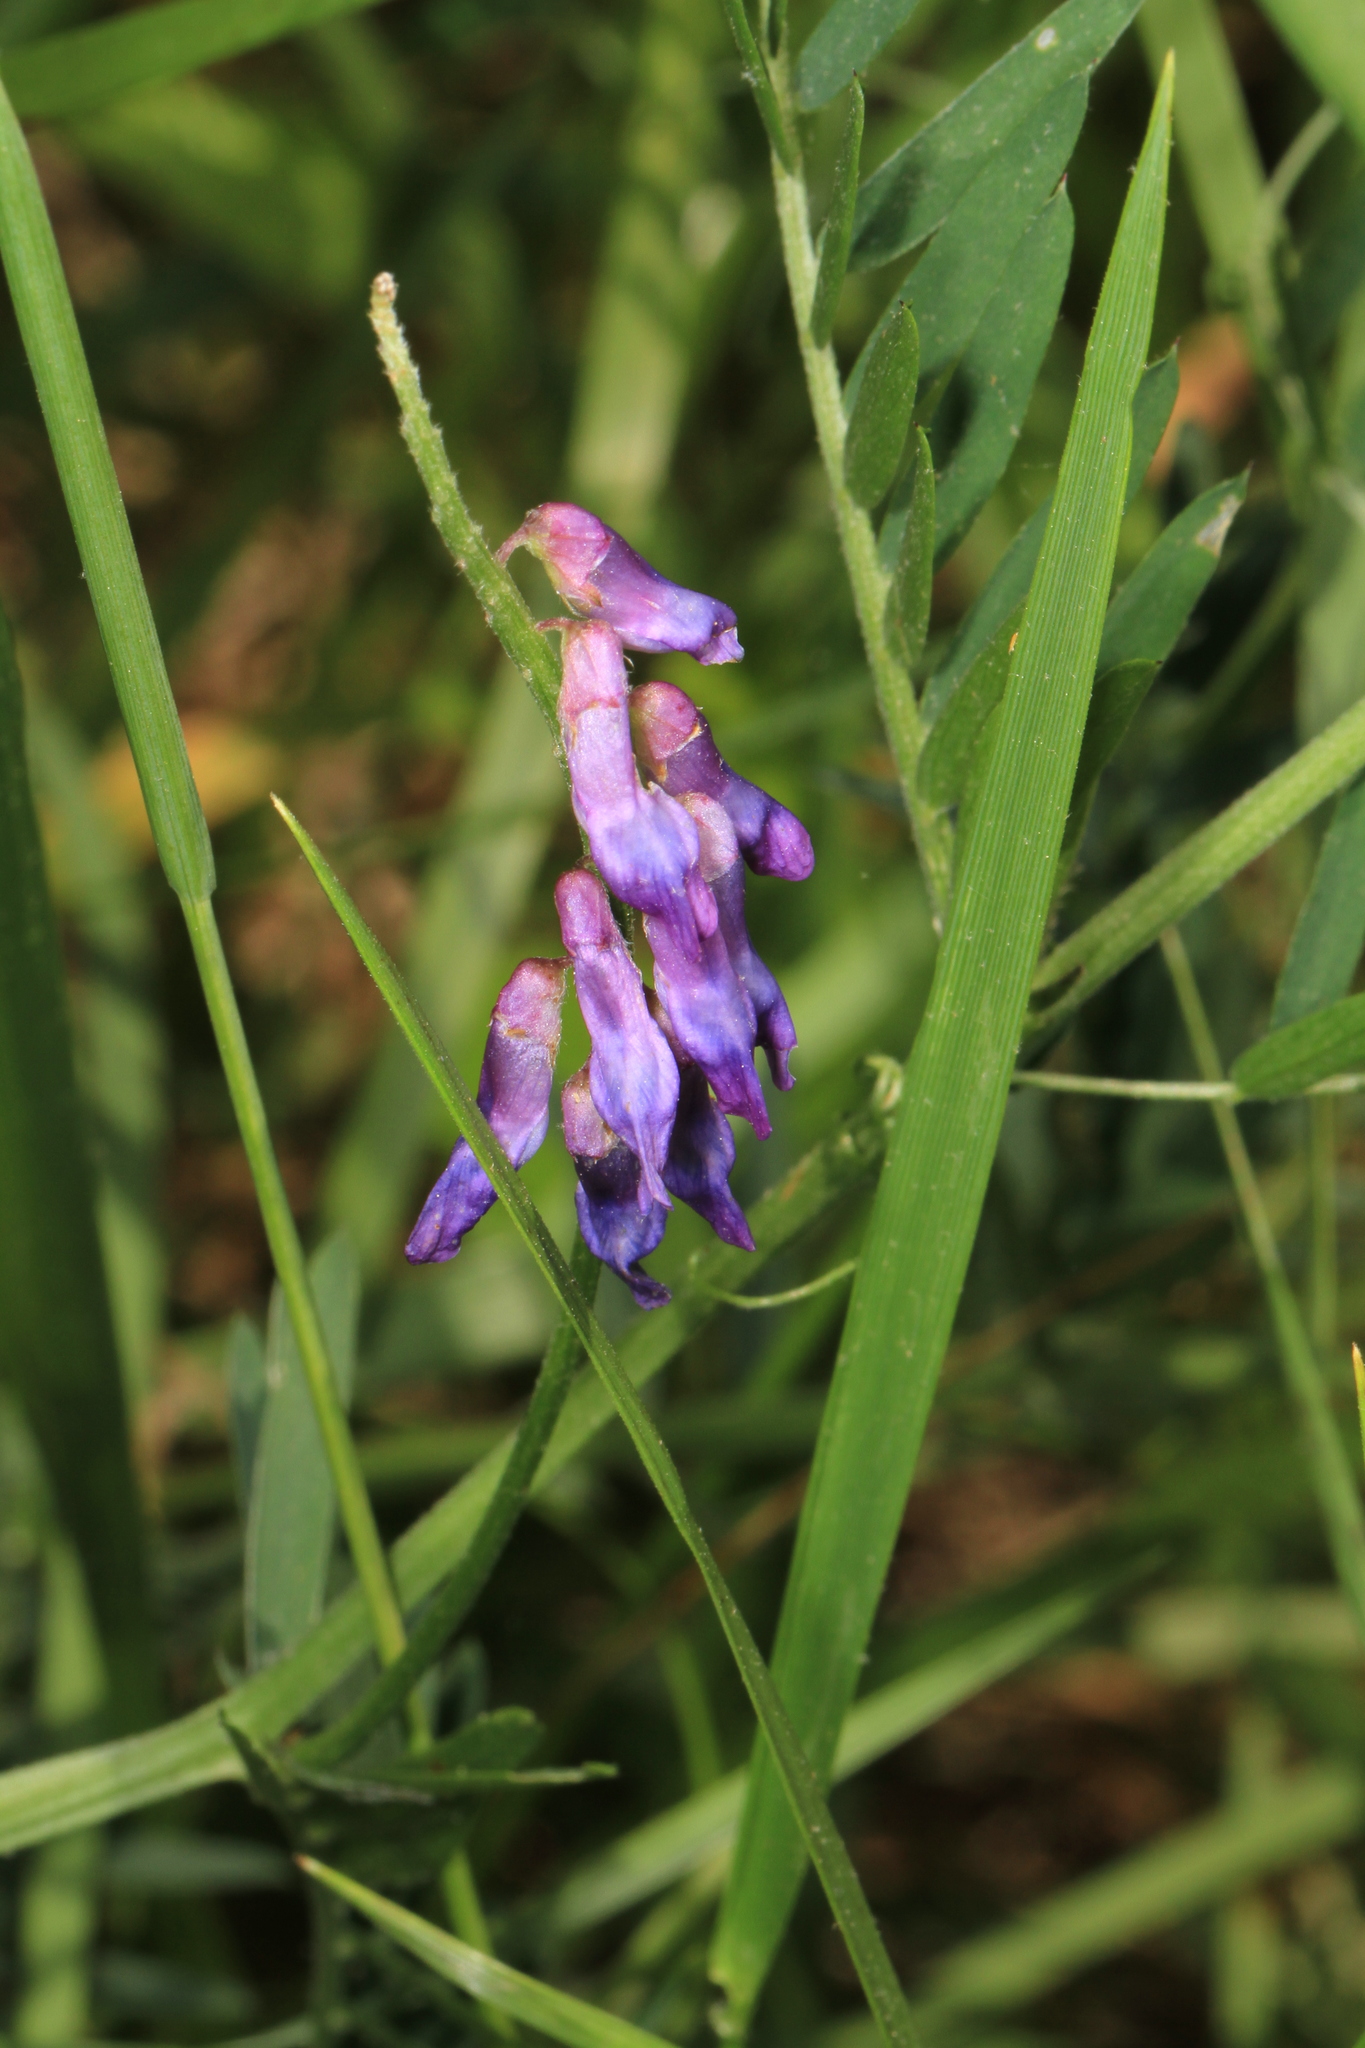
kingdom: Plantae
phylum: Tracheophyta
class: Magnoliopsida
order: Fabales
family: Fabaceae
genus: Vicia
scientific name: Vicia cracca
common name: Bird vetch
